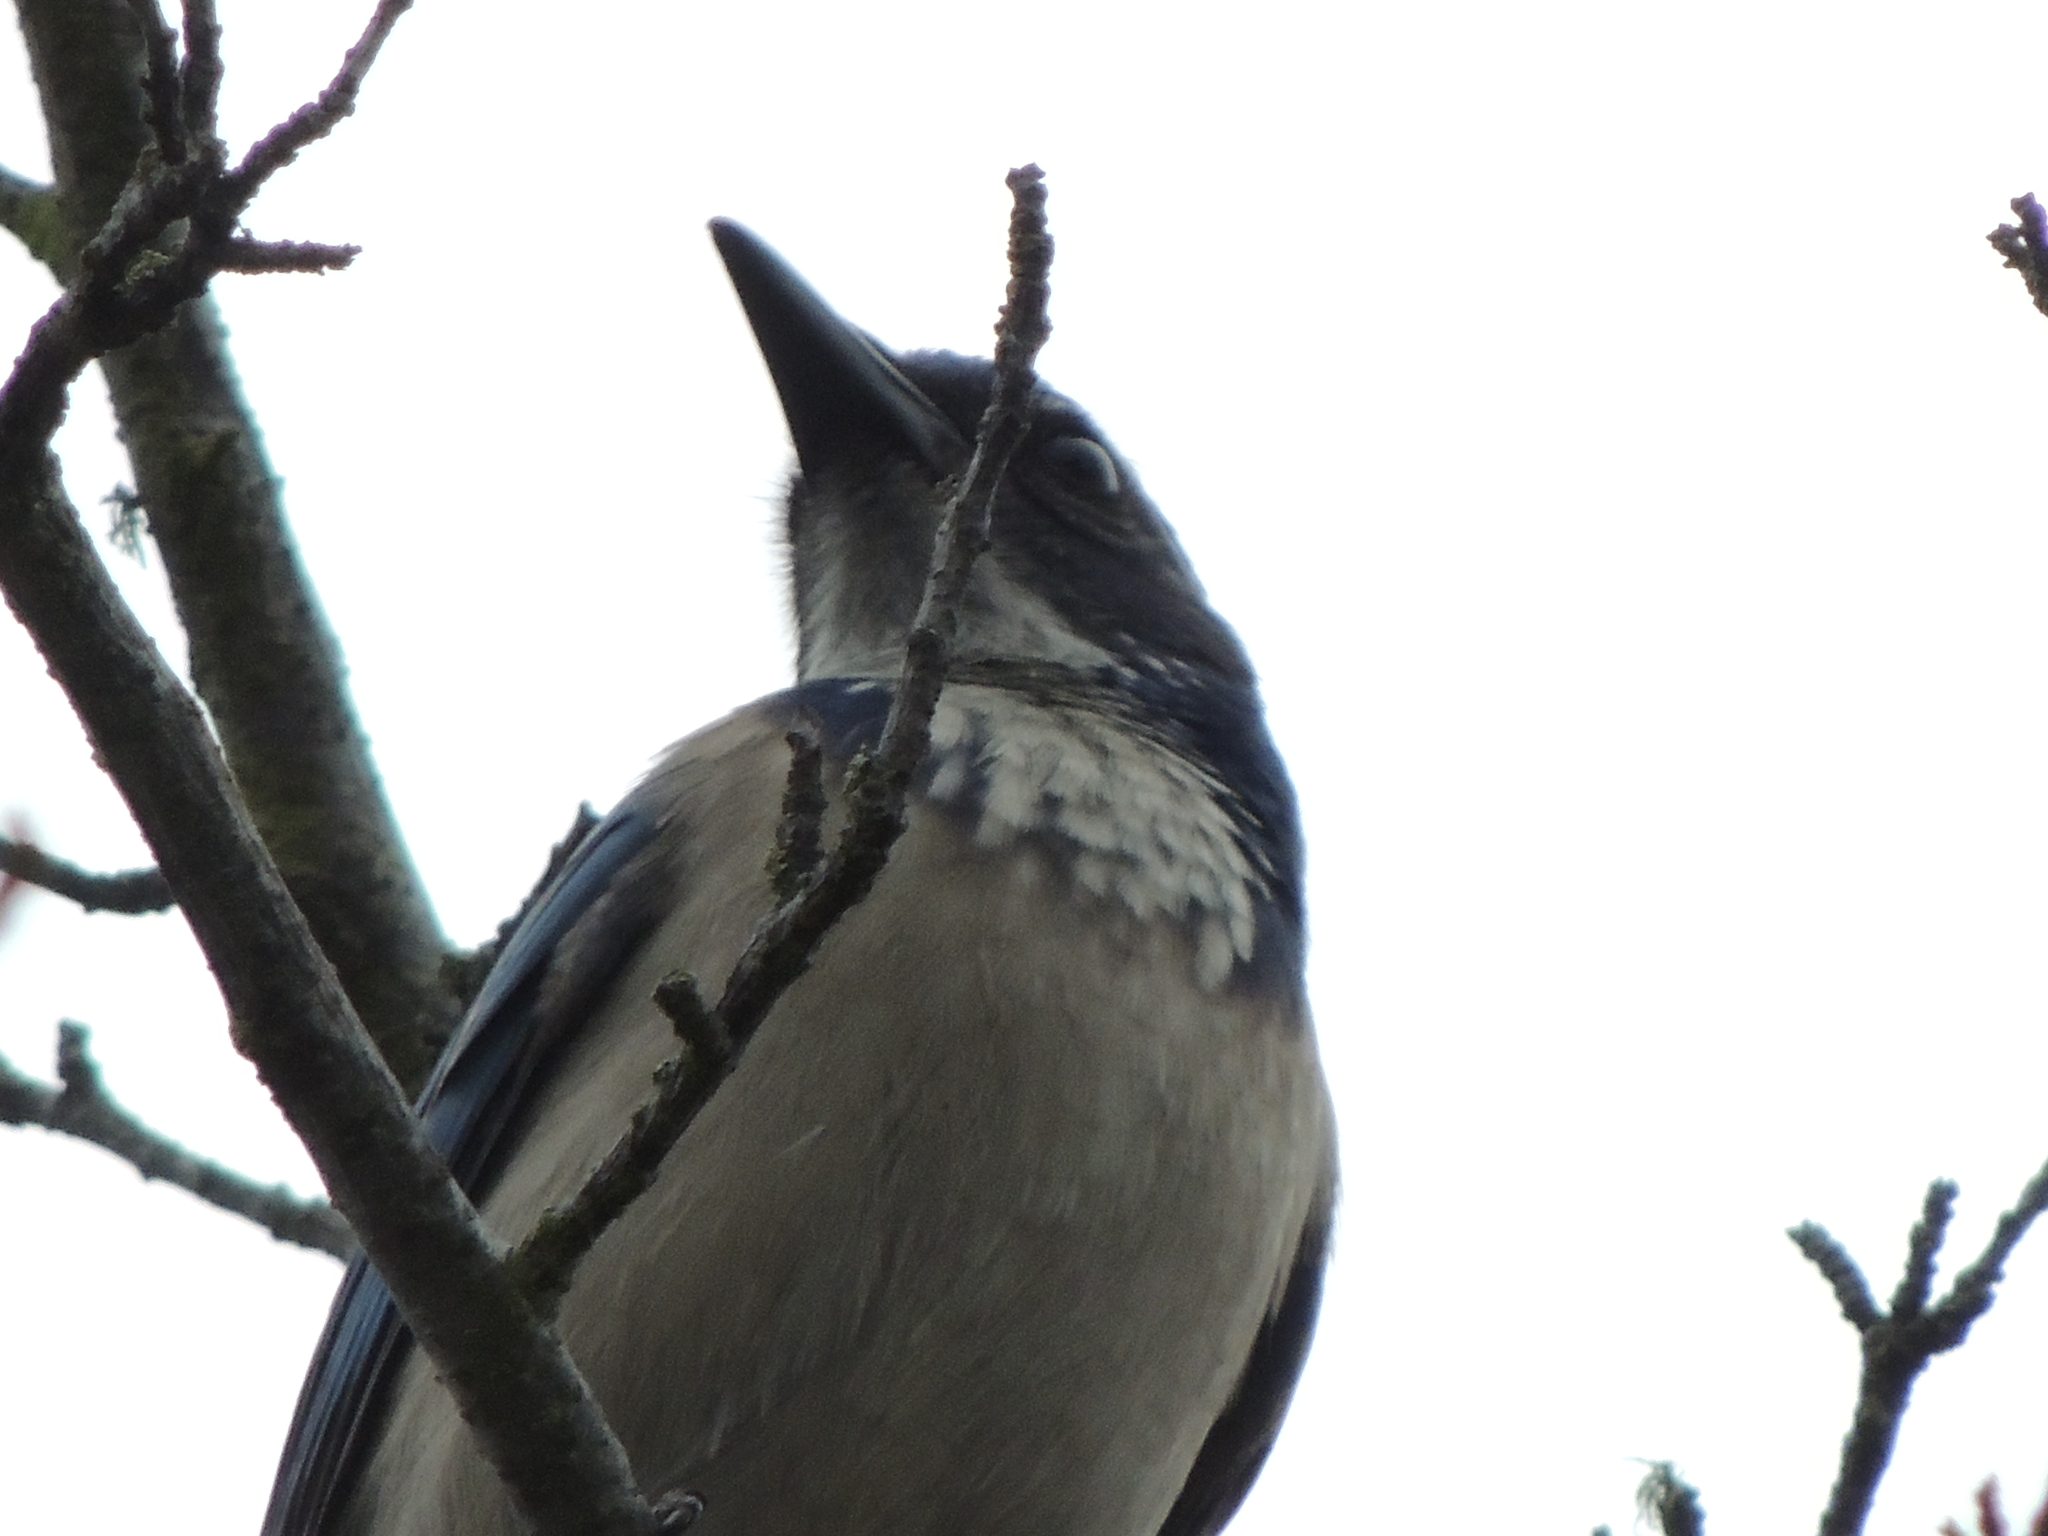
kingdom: Animalia
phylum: Chordata
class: Aves
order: Passeriformes
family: Corvidae
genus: Aphelocoma
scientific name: Aphelocoma californica
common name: California scrub-jay
